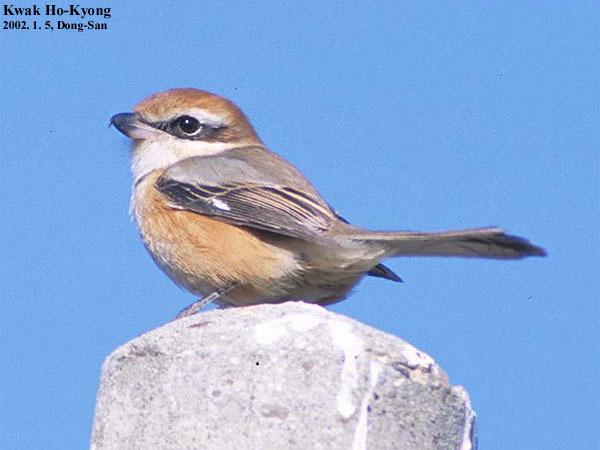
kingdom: Animalia
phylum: Chordata
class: Aves
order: Passeriformes
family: Laniidae
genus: Lanius
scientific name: Lanius bucephalus
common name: Bull-headed shrike
